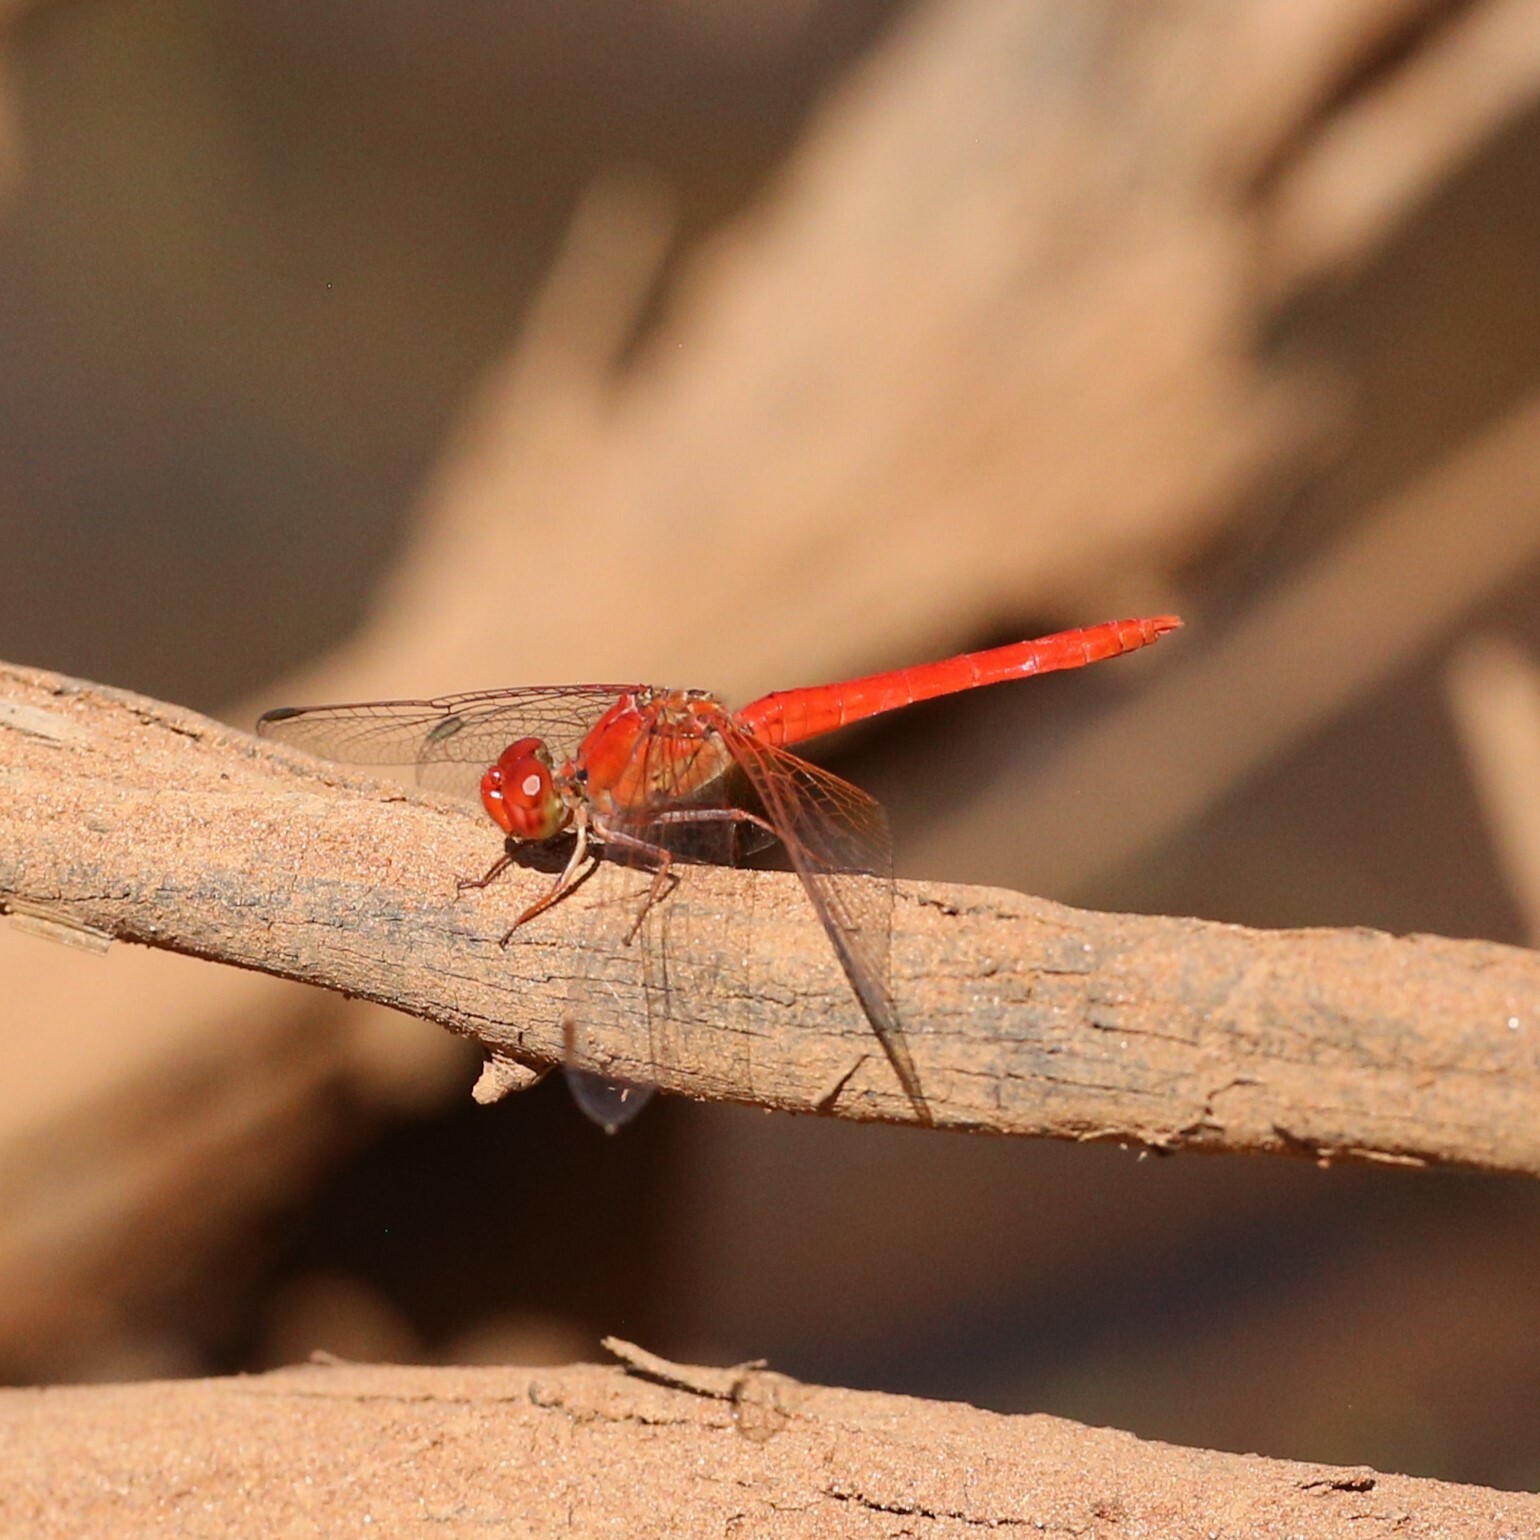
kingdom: Animalia
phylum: Arthropoda
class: Insecta
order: Odonata
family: Libellulidae
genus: Diplacodes
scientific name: Diplacodes haematodes
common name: Scarlet percher
